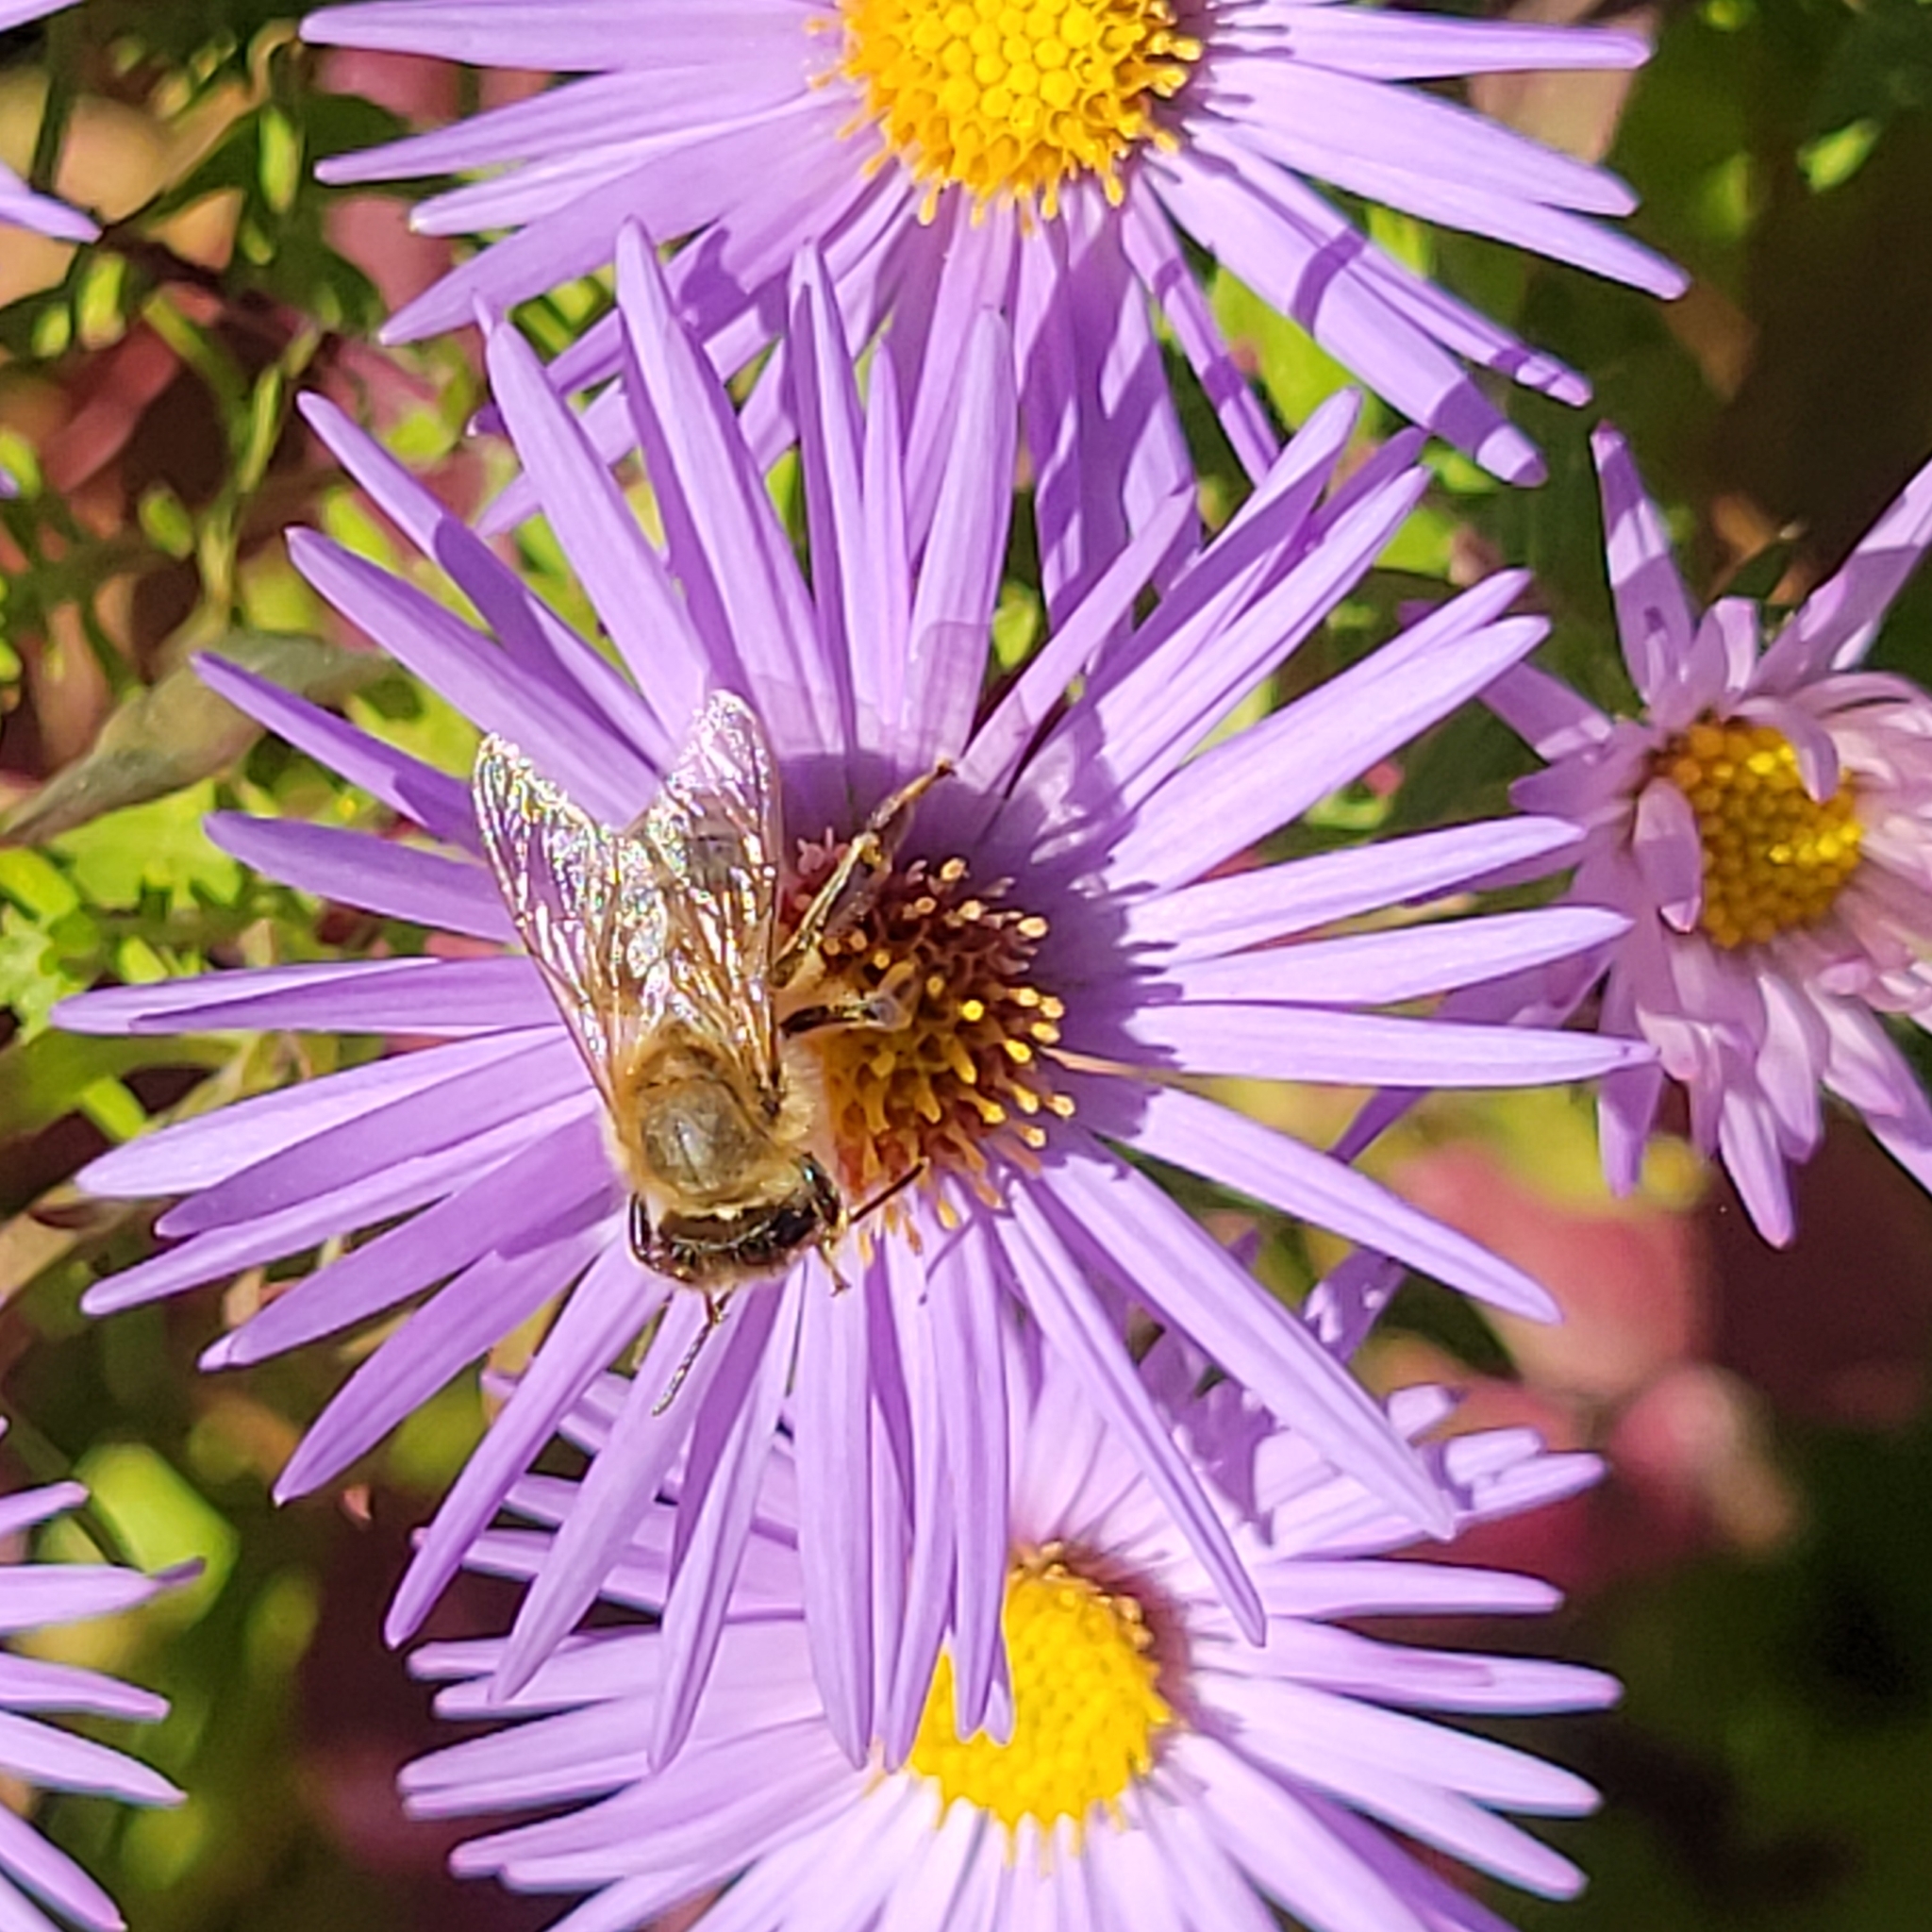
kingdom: Animalia
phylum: Arthropoda
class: Insecta
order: Hymenoptera
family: Apidae
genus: Apis
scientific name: Apis mellifera
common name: Honey bee
